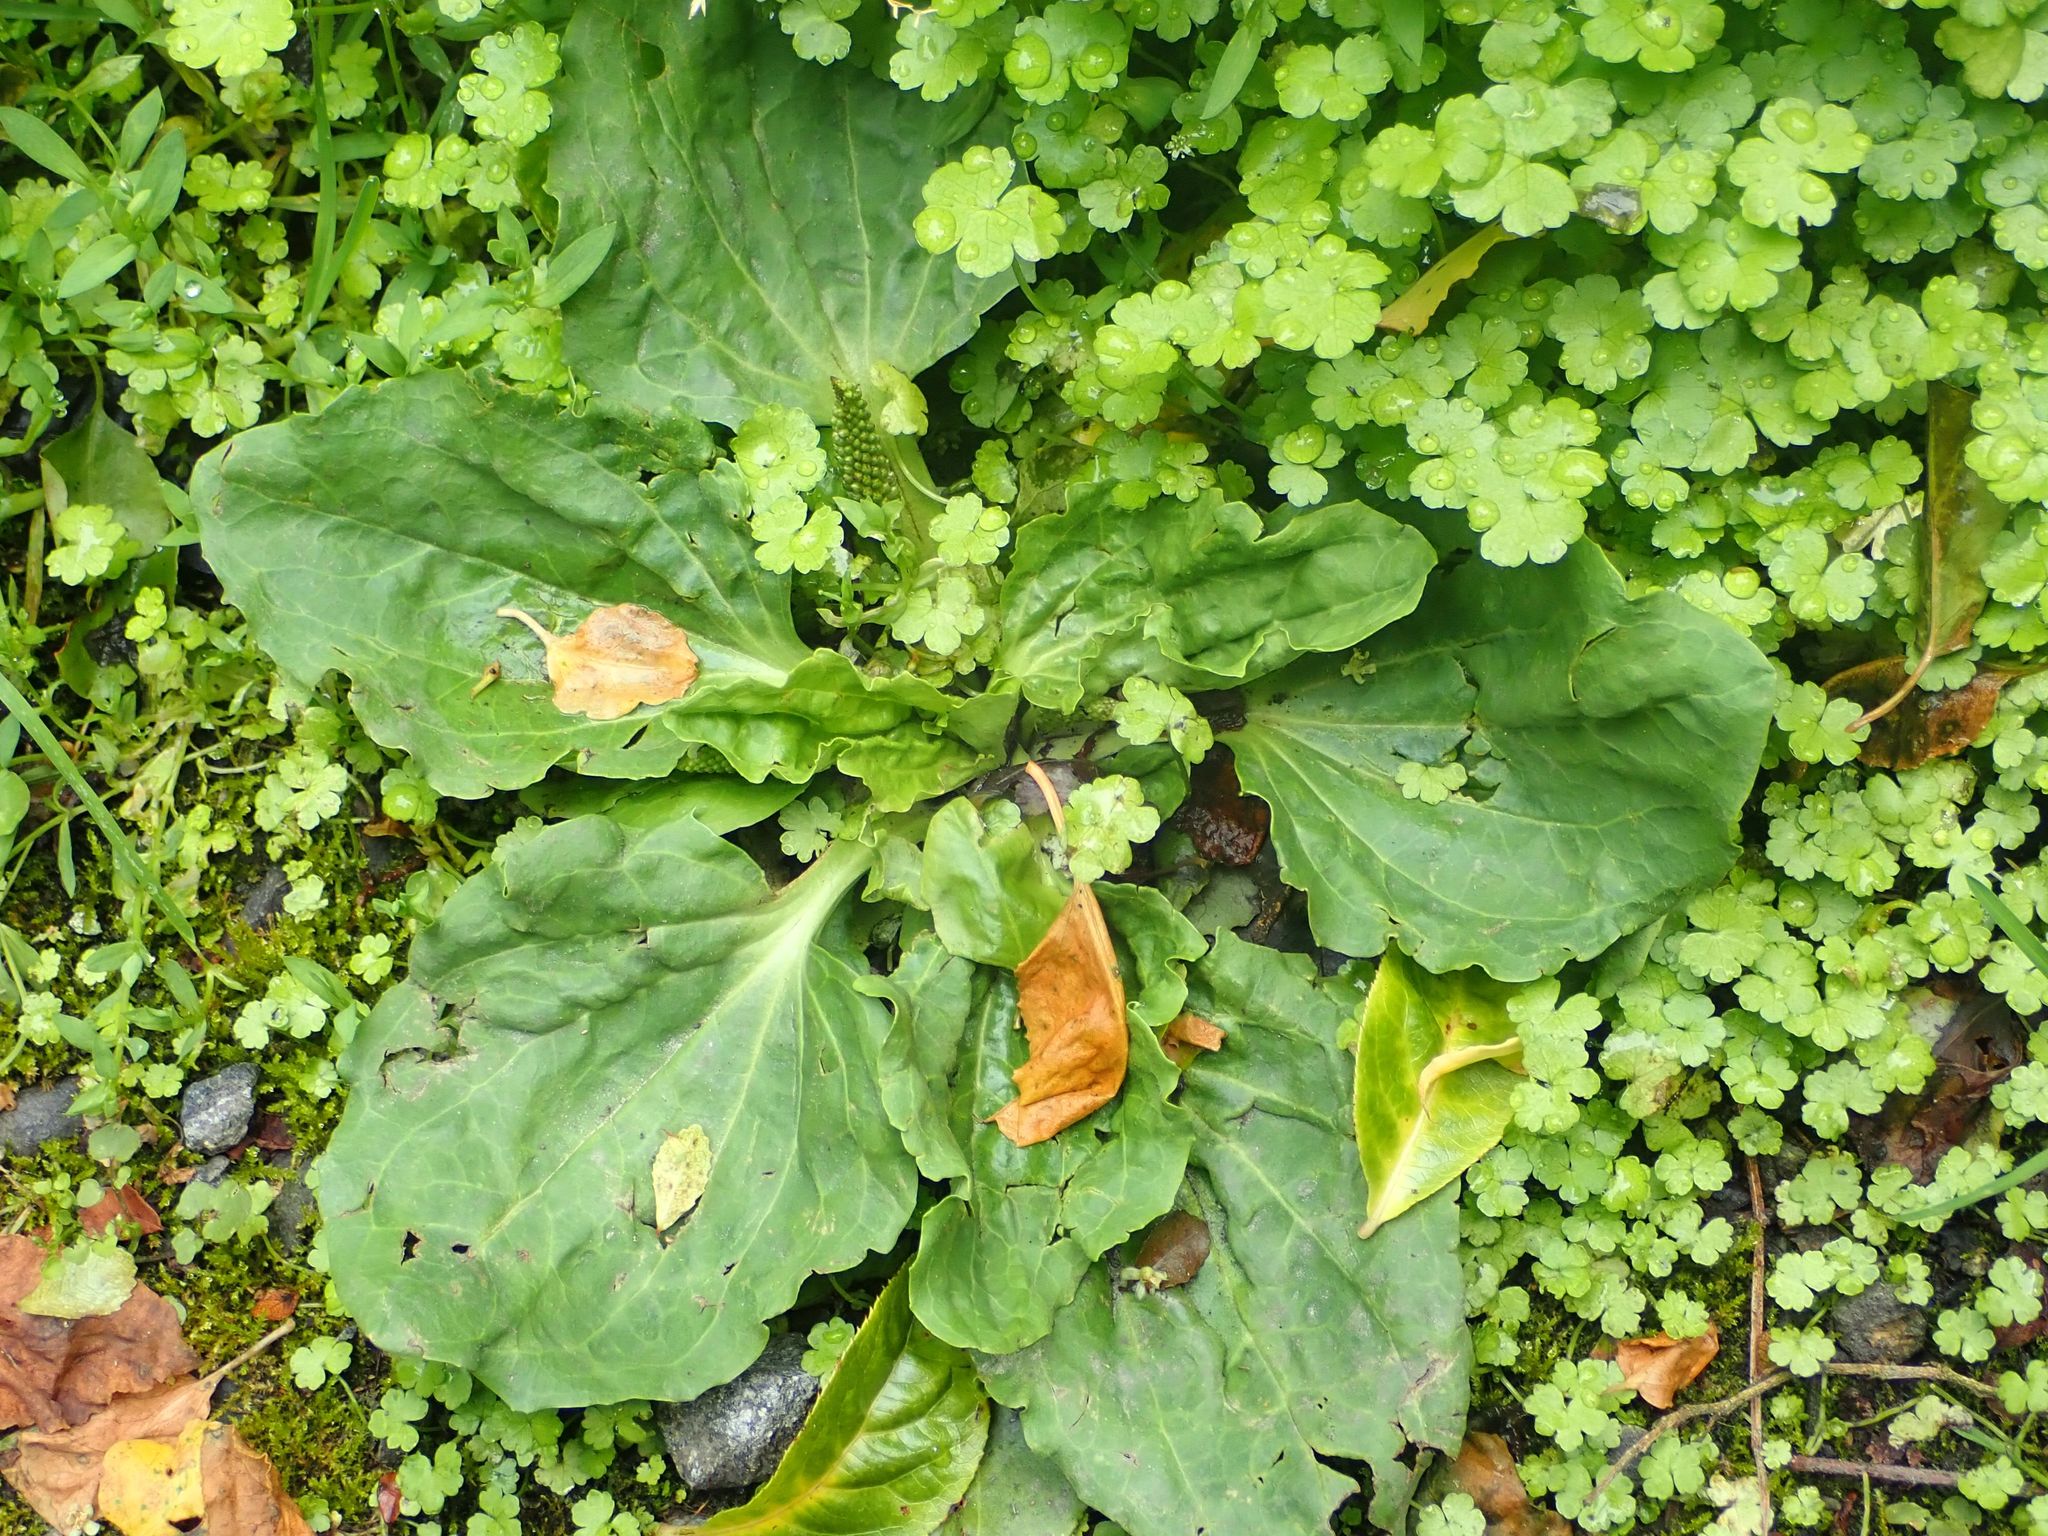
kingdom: Plantae
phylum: Tracheophyta
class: Magnoliopsida
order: Lamiales
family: Plantaginaceae
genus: Plantago
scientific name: Plantago major
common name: Common plantain
